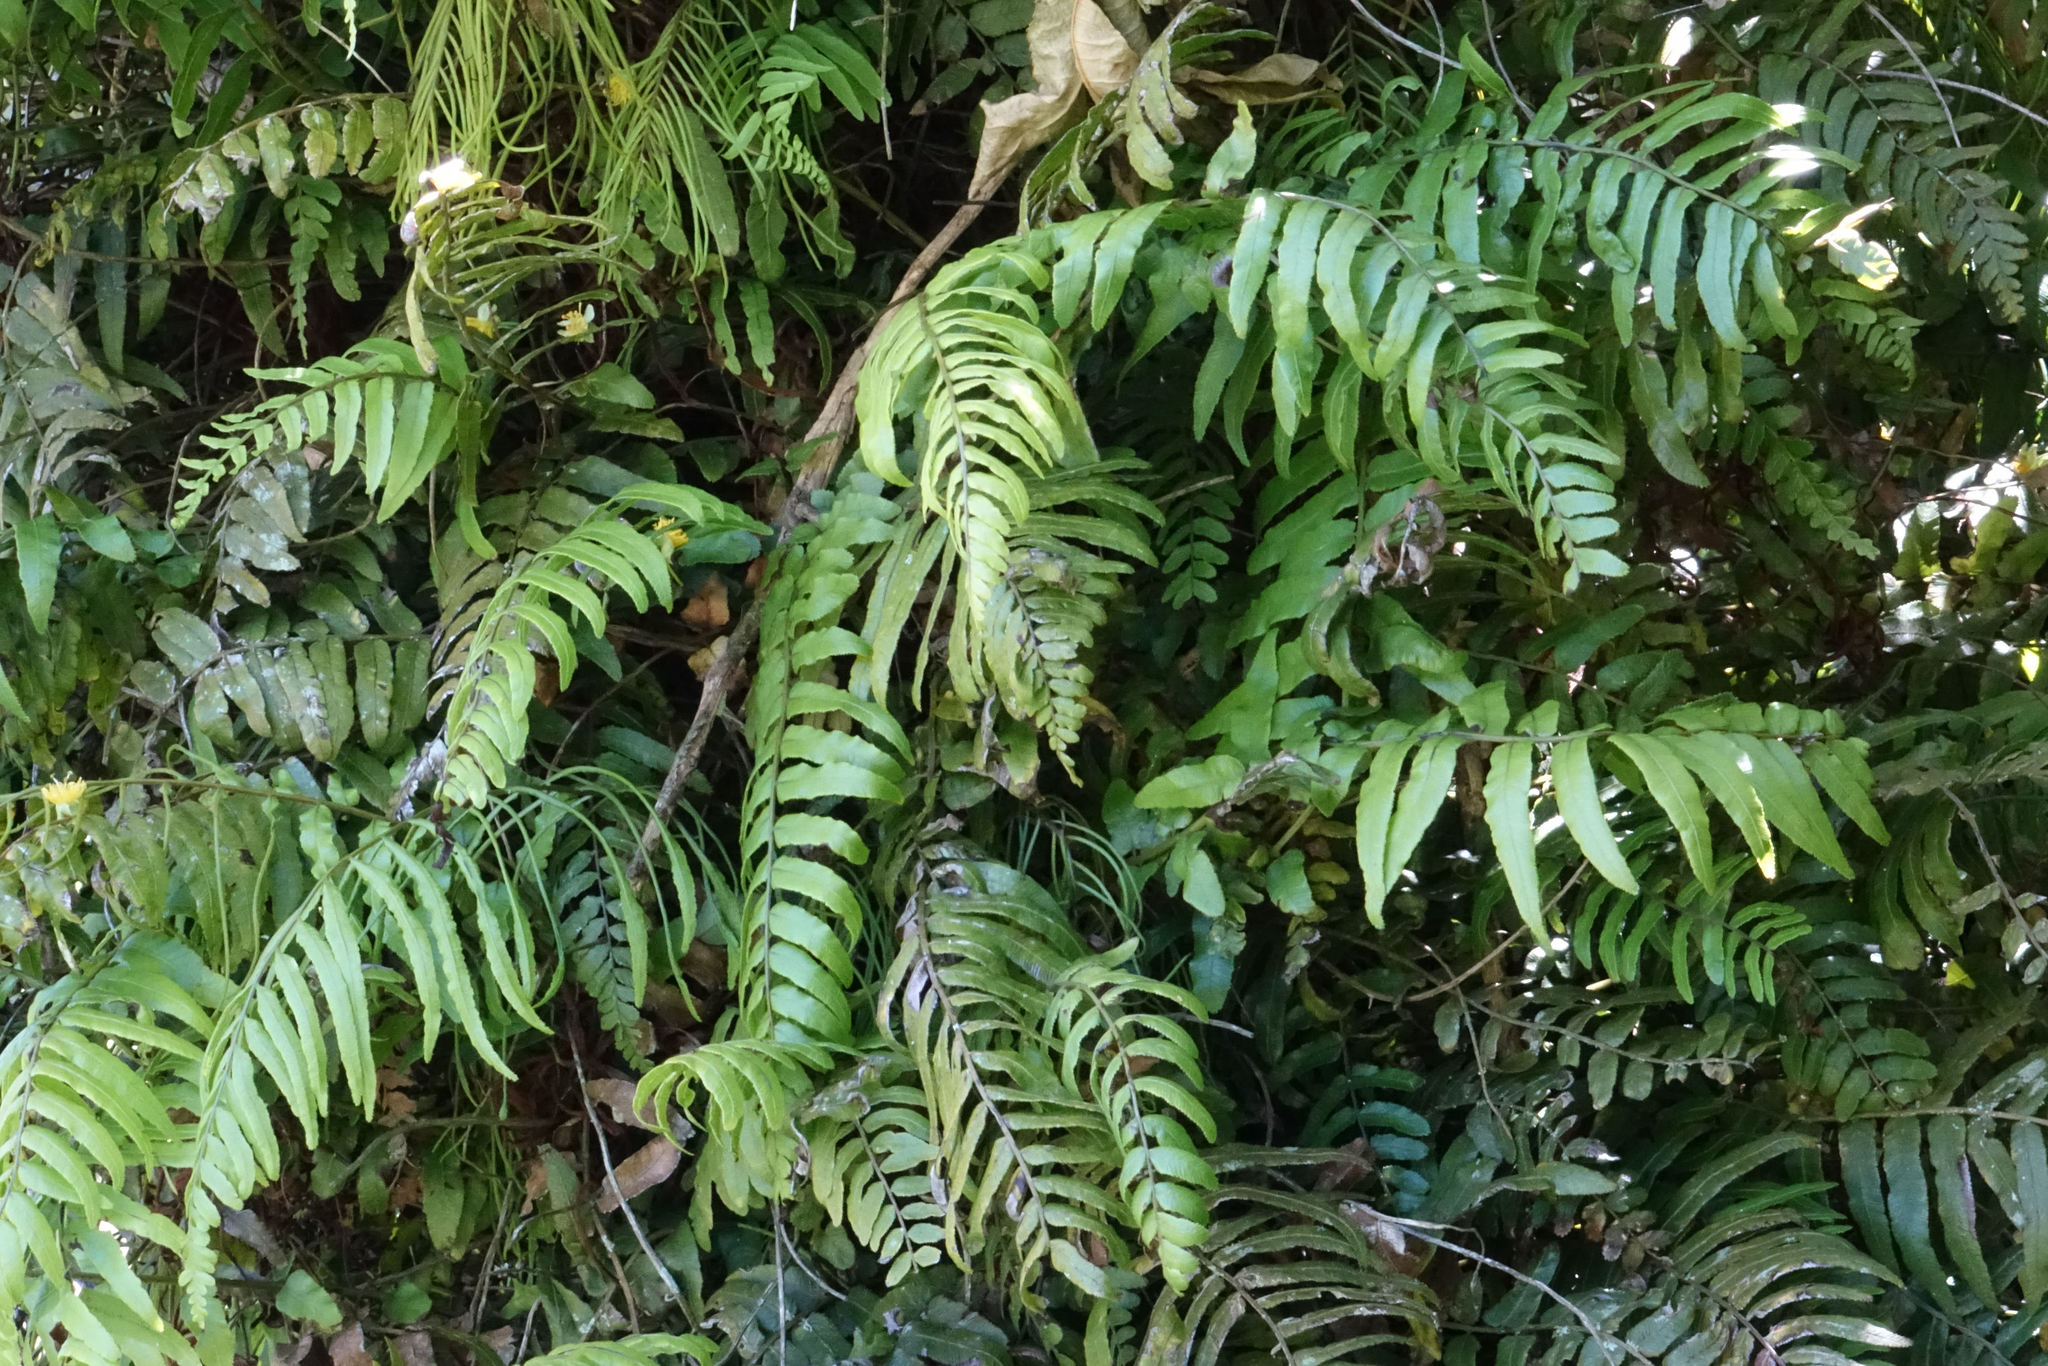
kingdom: Plantae
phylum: Tracheophyta
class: Polypodiopsida
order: Polypodiales
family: Blechnaceae
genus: Icarus
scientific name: Icarus filiformis
